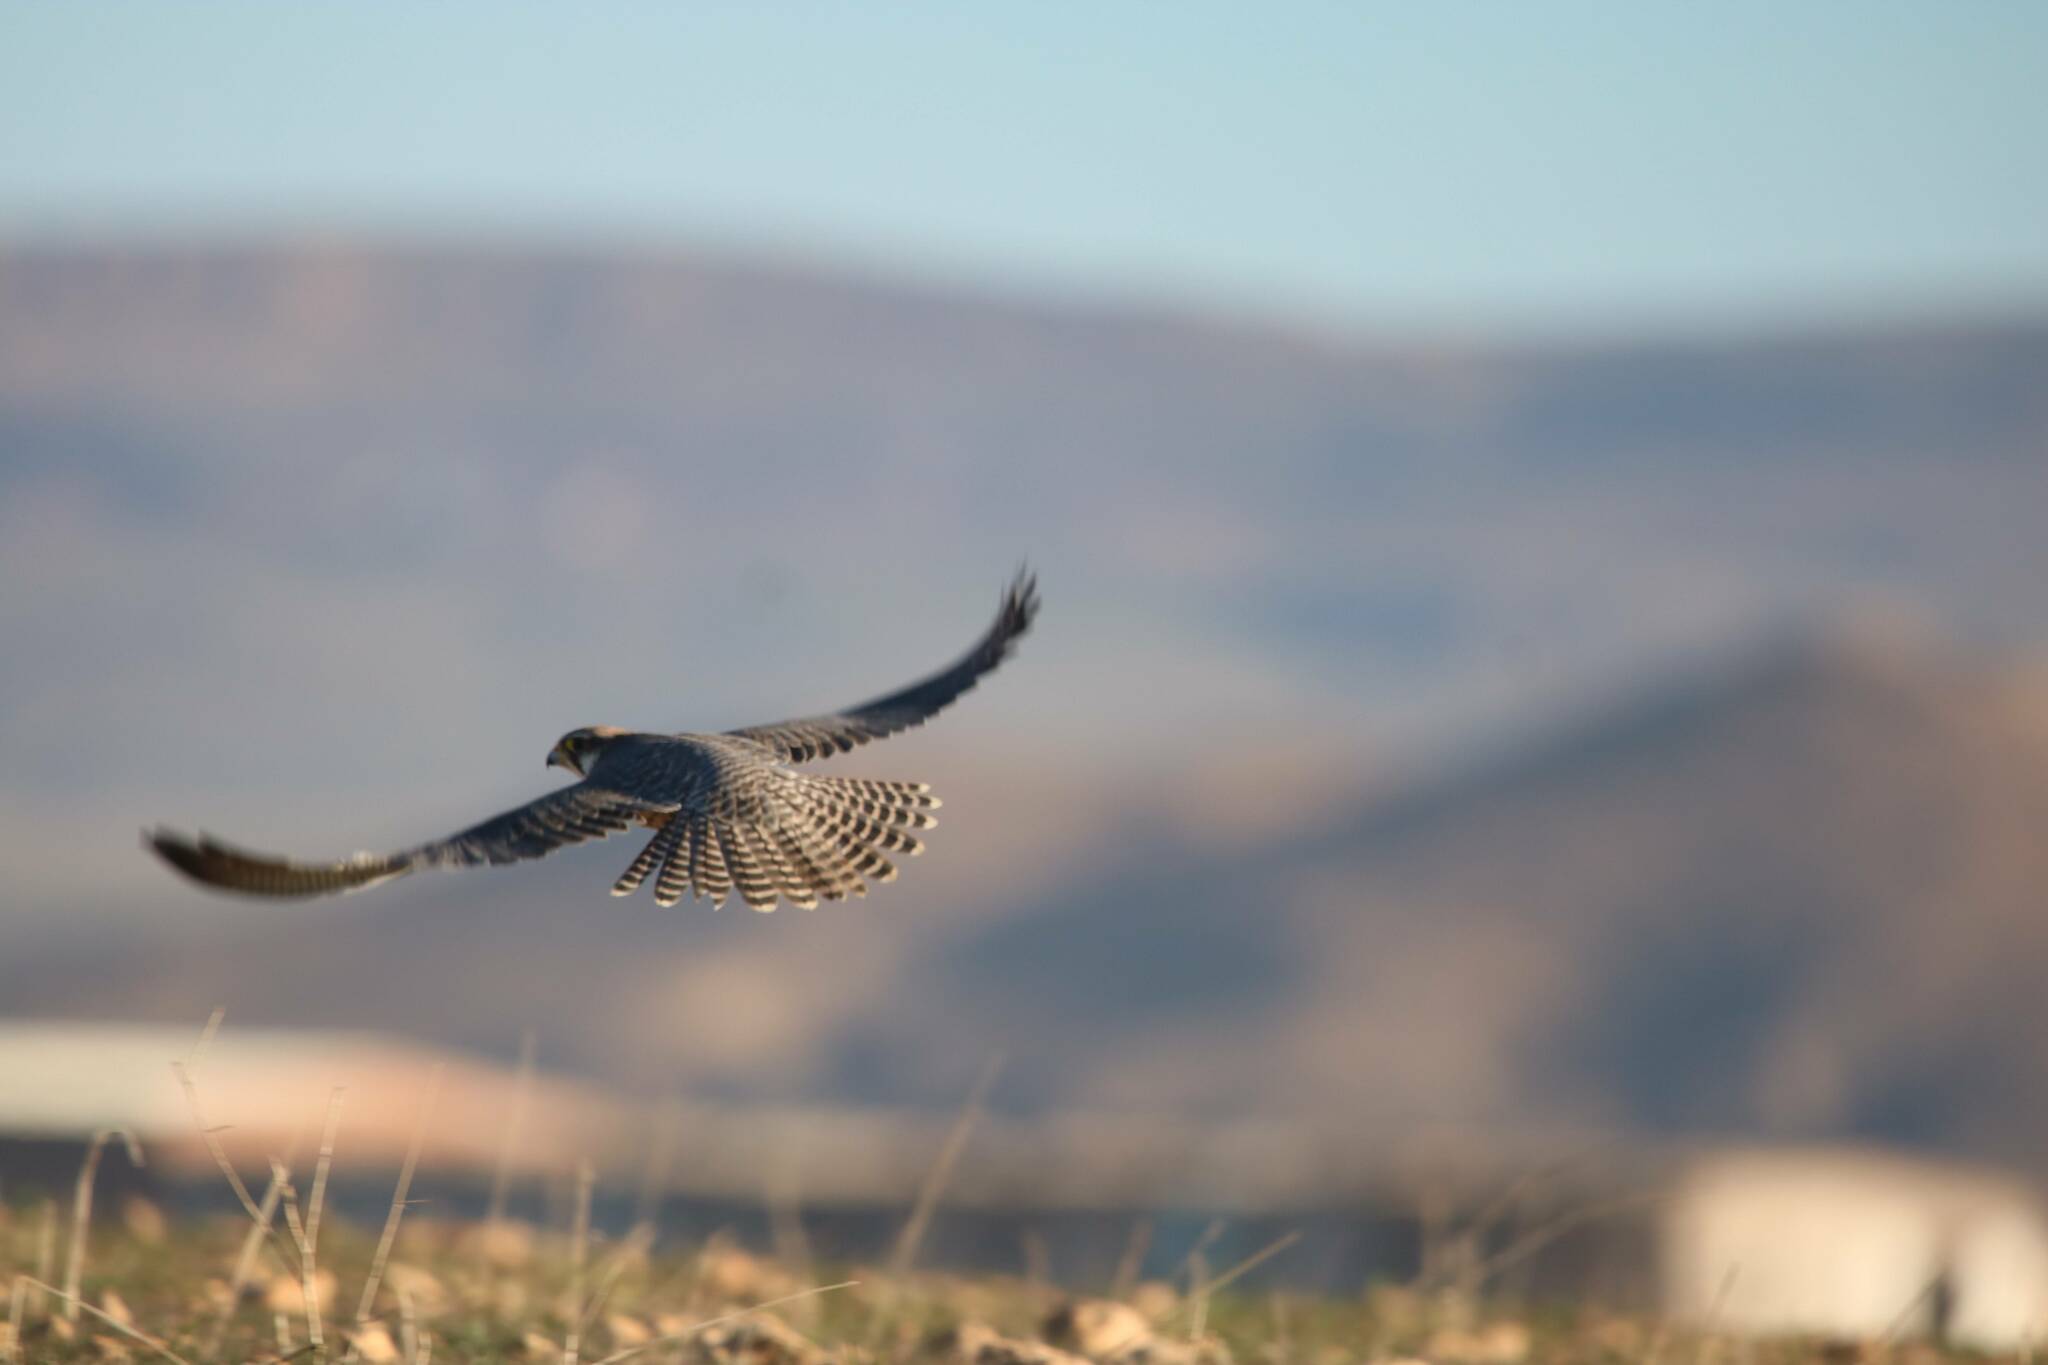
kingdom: Animalia
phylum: Chordata
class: Aves
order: Falconiformes
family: Falconidae
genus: Falco
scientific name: Falco biarmicus
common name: Lanner falcon
